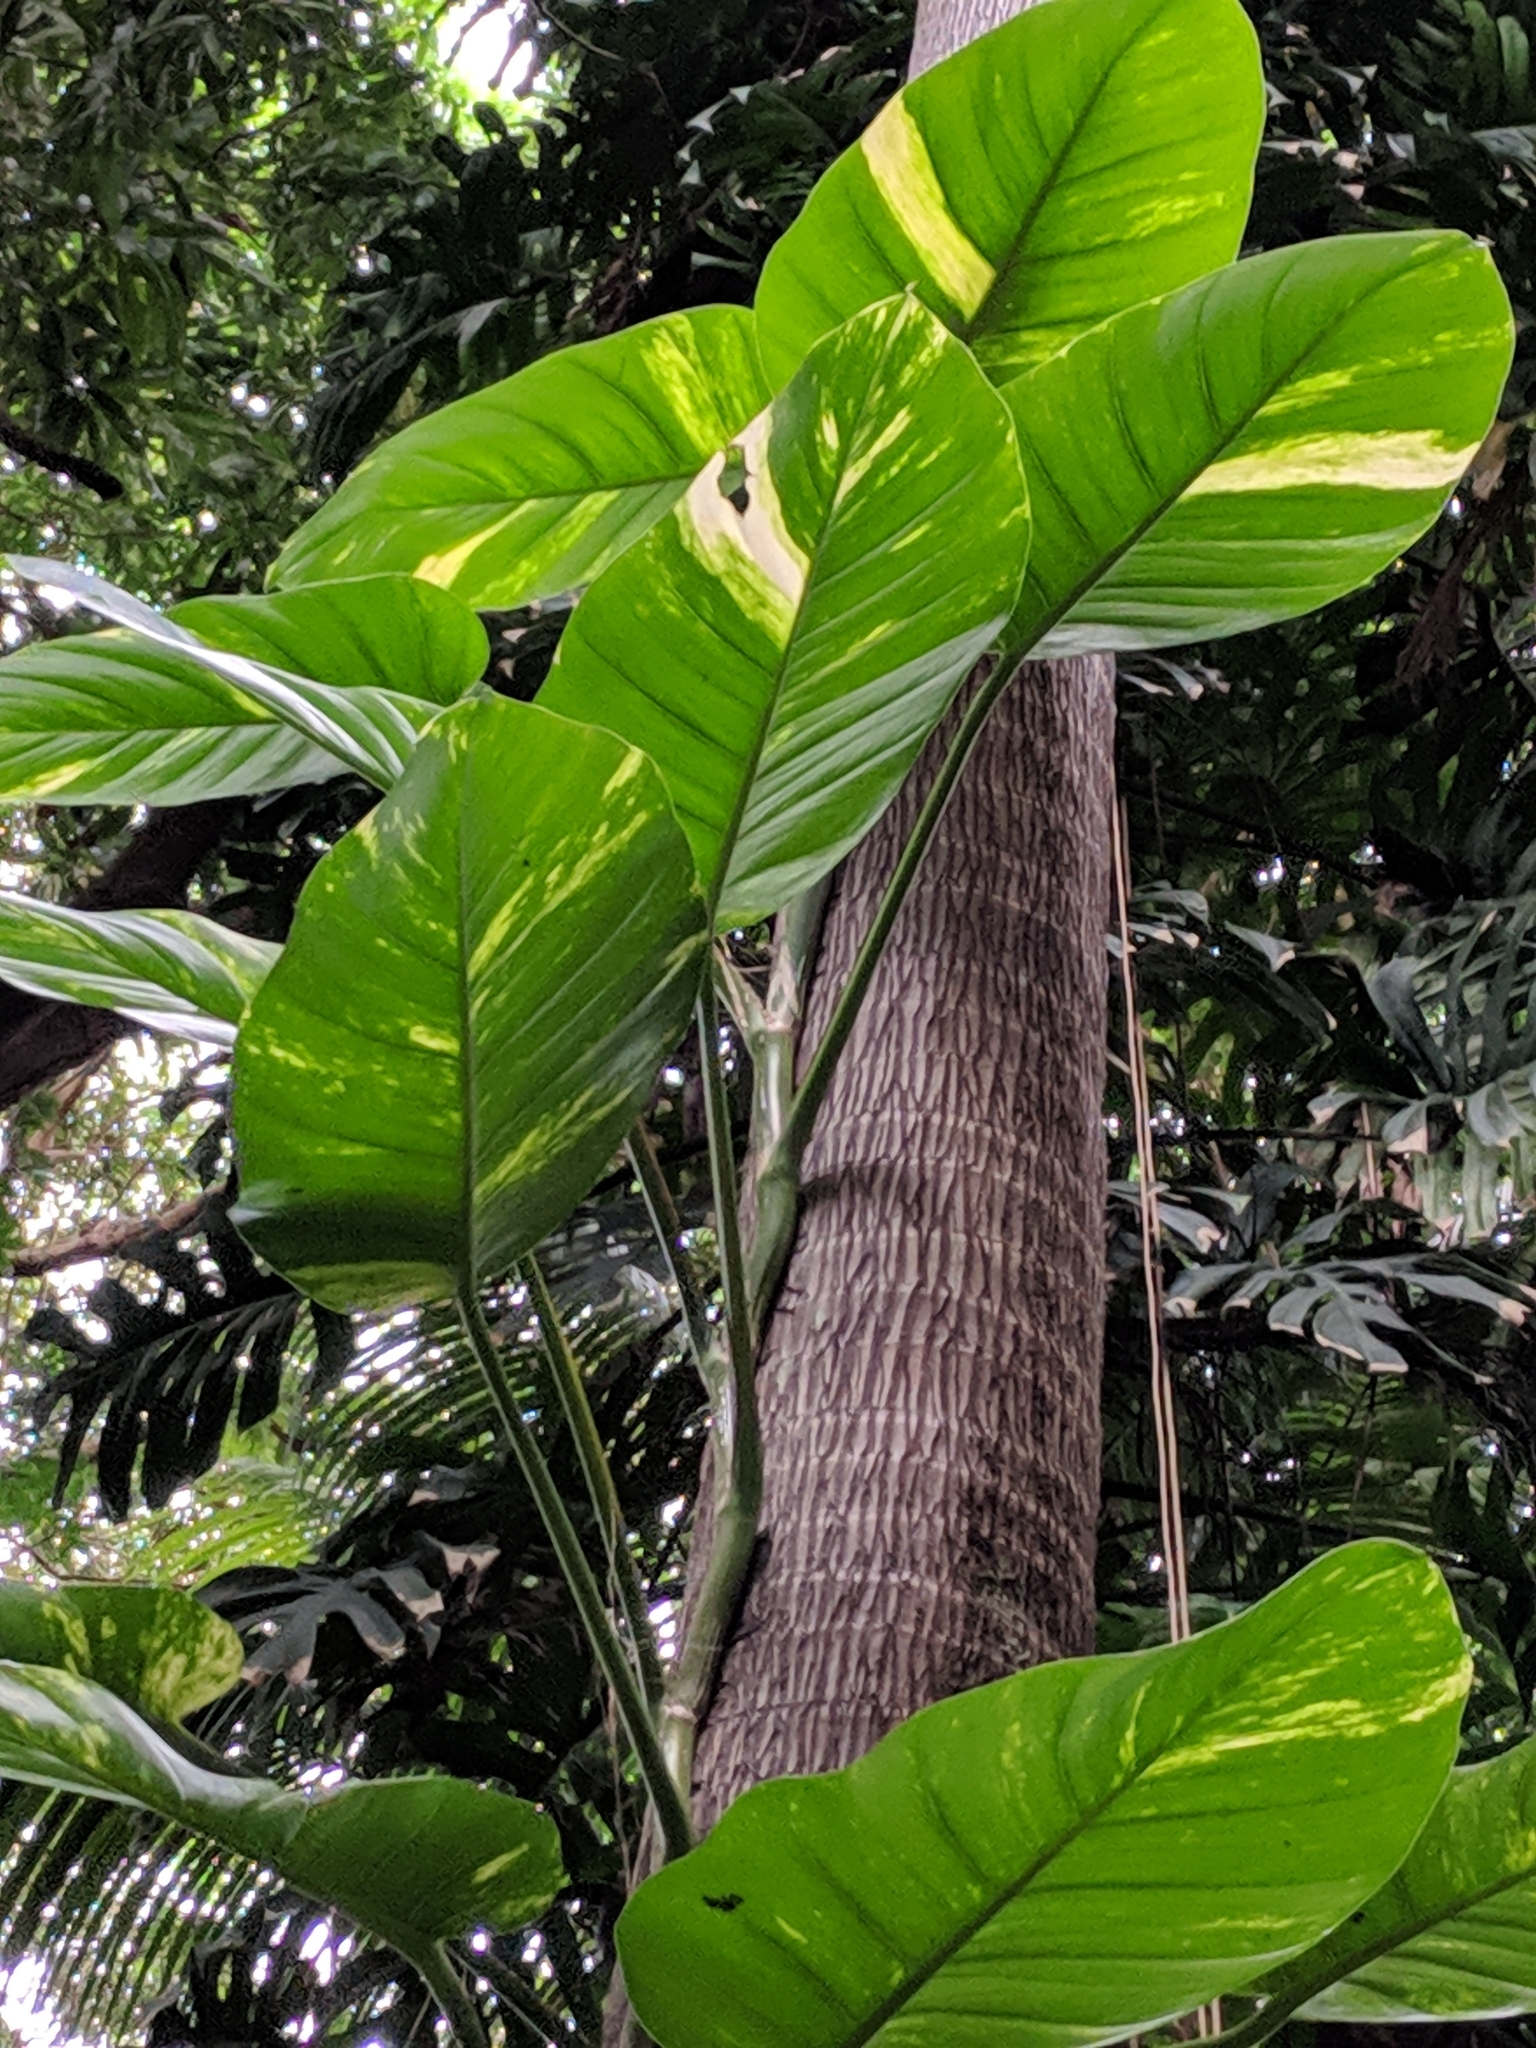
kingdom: Plantae
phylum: Tracheophyta
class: Liliopsida
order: Alismatales
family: Araceae
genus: Epipremnum
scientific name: Epipremnum aureum
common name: Golden hunter's-robe
